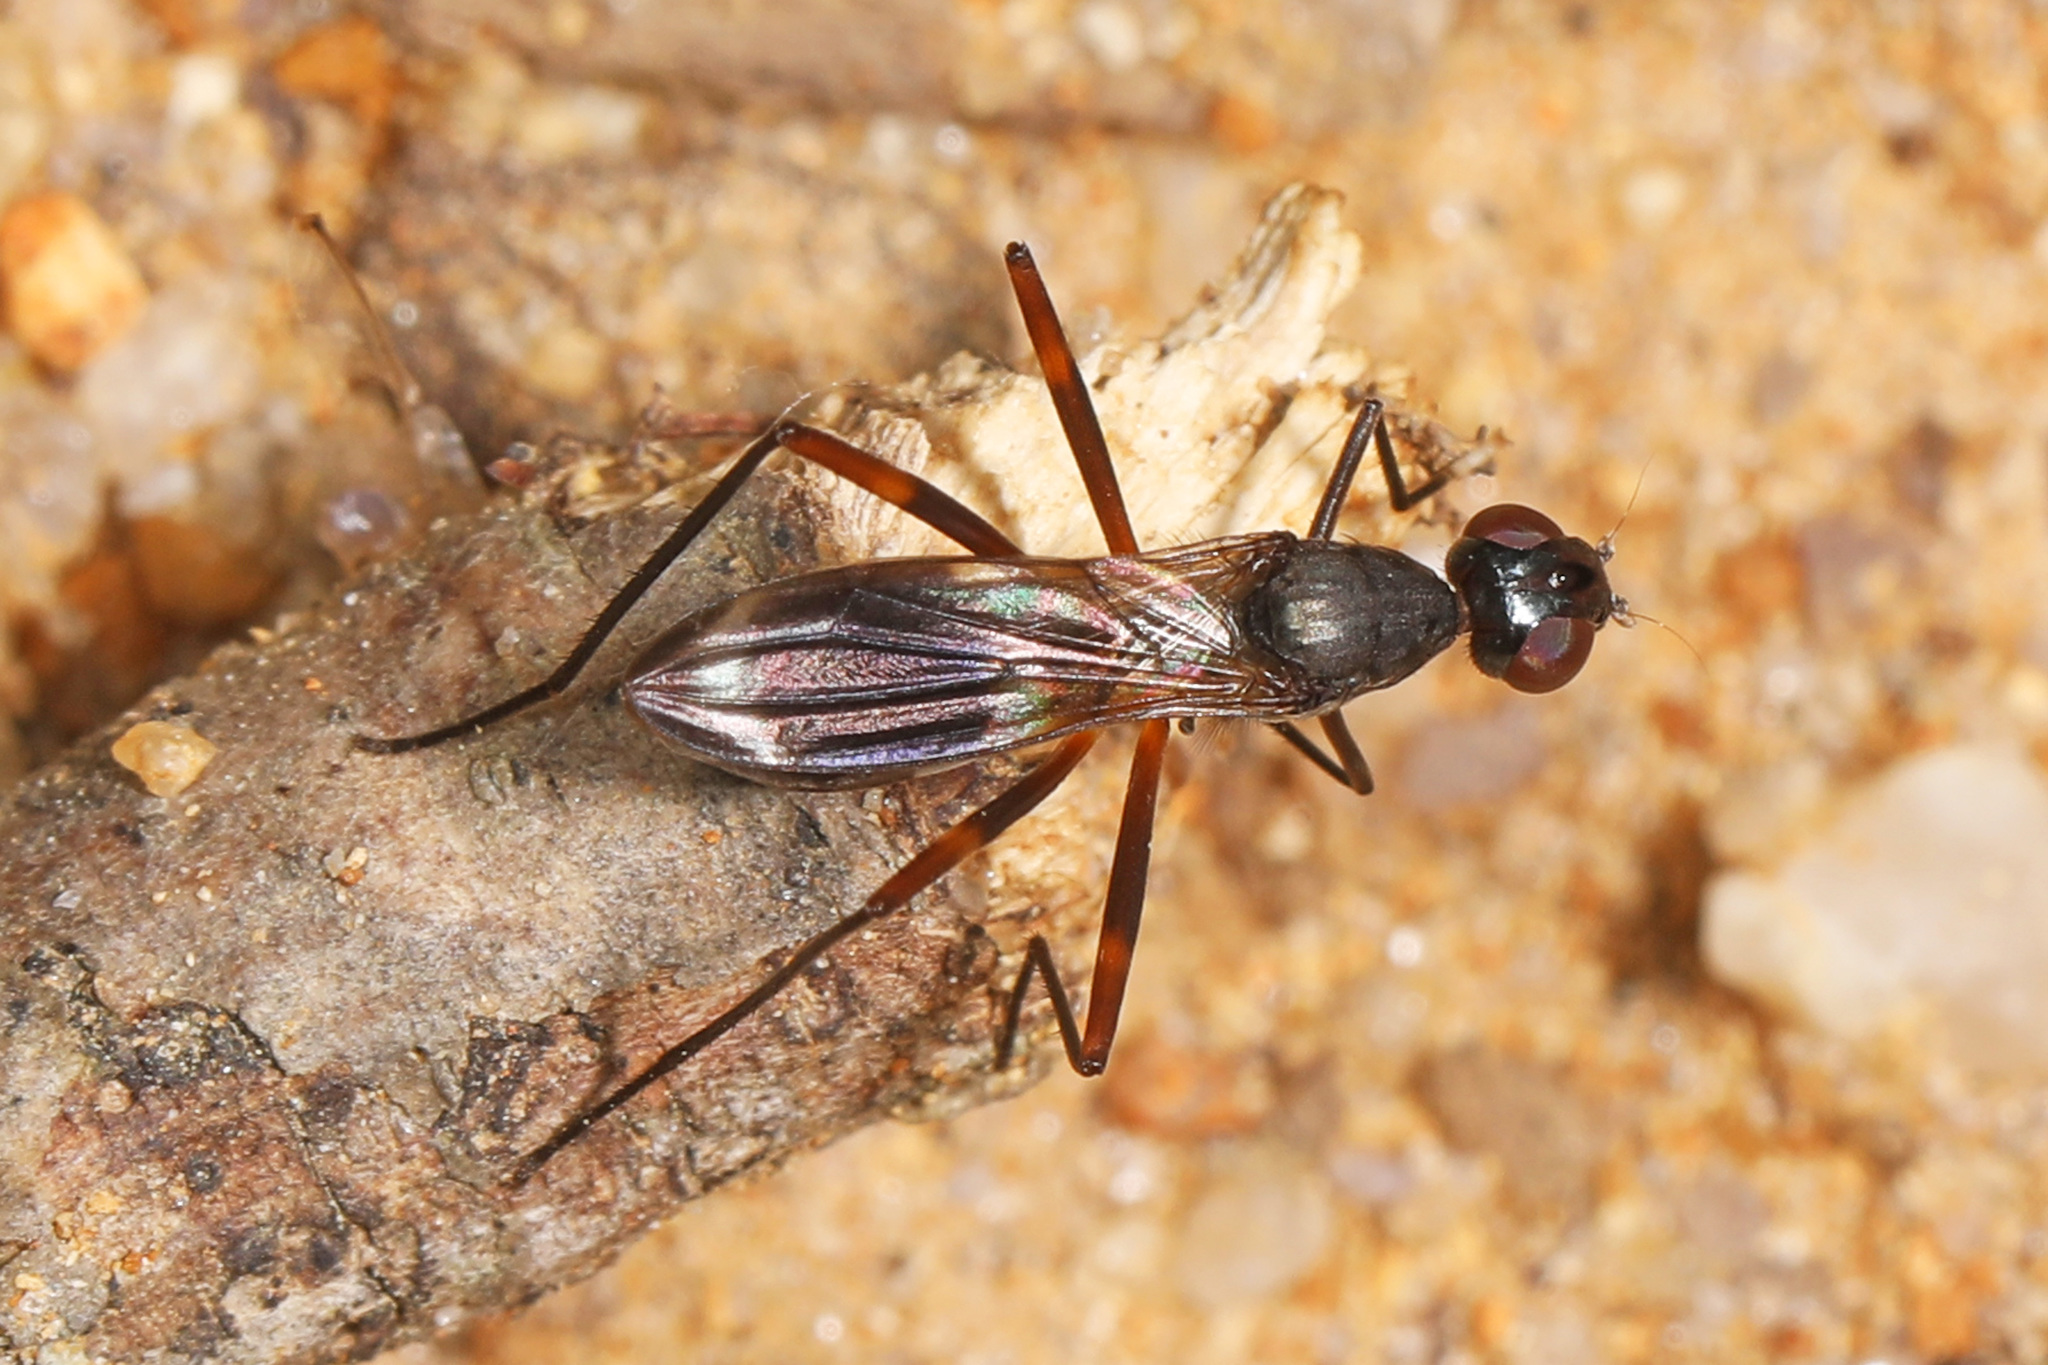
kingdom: Animalia
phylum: Arthropoda
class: Insecta
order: Diptera
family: Micropezidae
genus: Taeniaptera
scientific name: Taeniaptera trivittata
